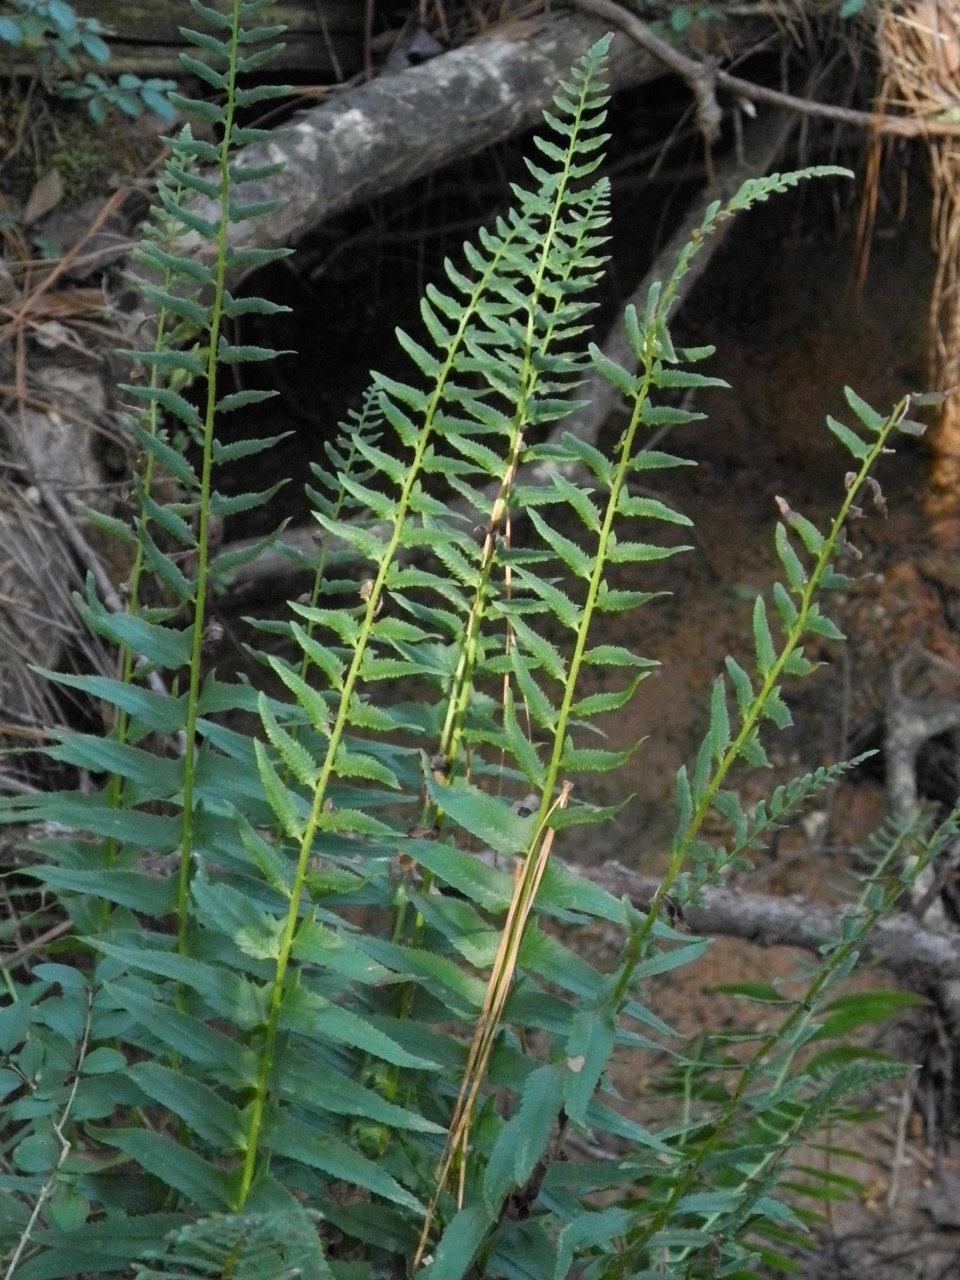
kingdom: Plantae
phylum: Tracheophyta
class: Polypodiopsida
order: Polypodiales
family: Dryopteridaceae
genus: Polystichum
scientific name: Polystichum acrostichoides
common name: Christmas fern
